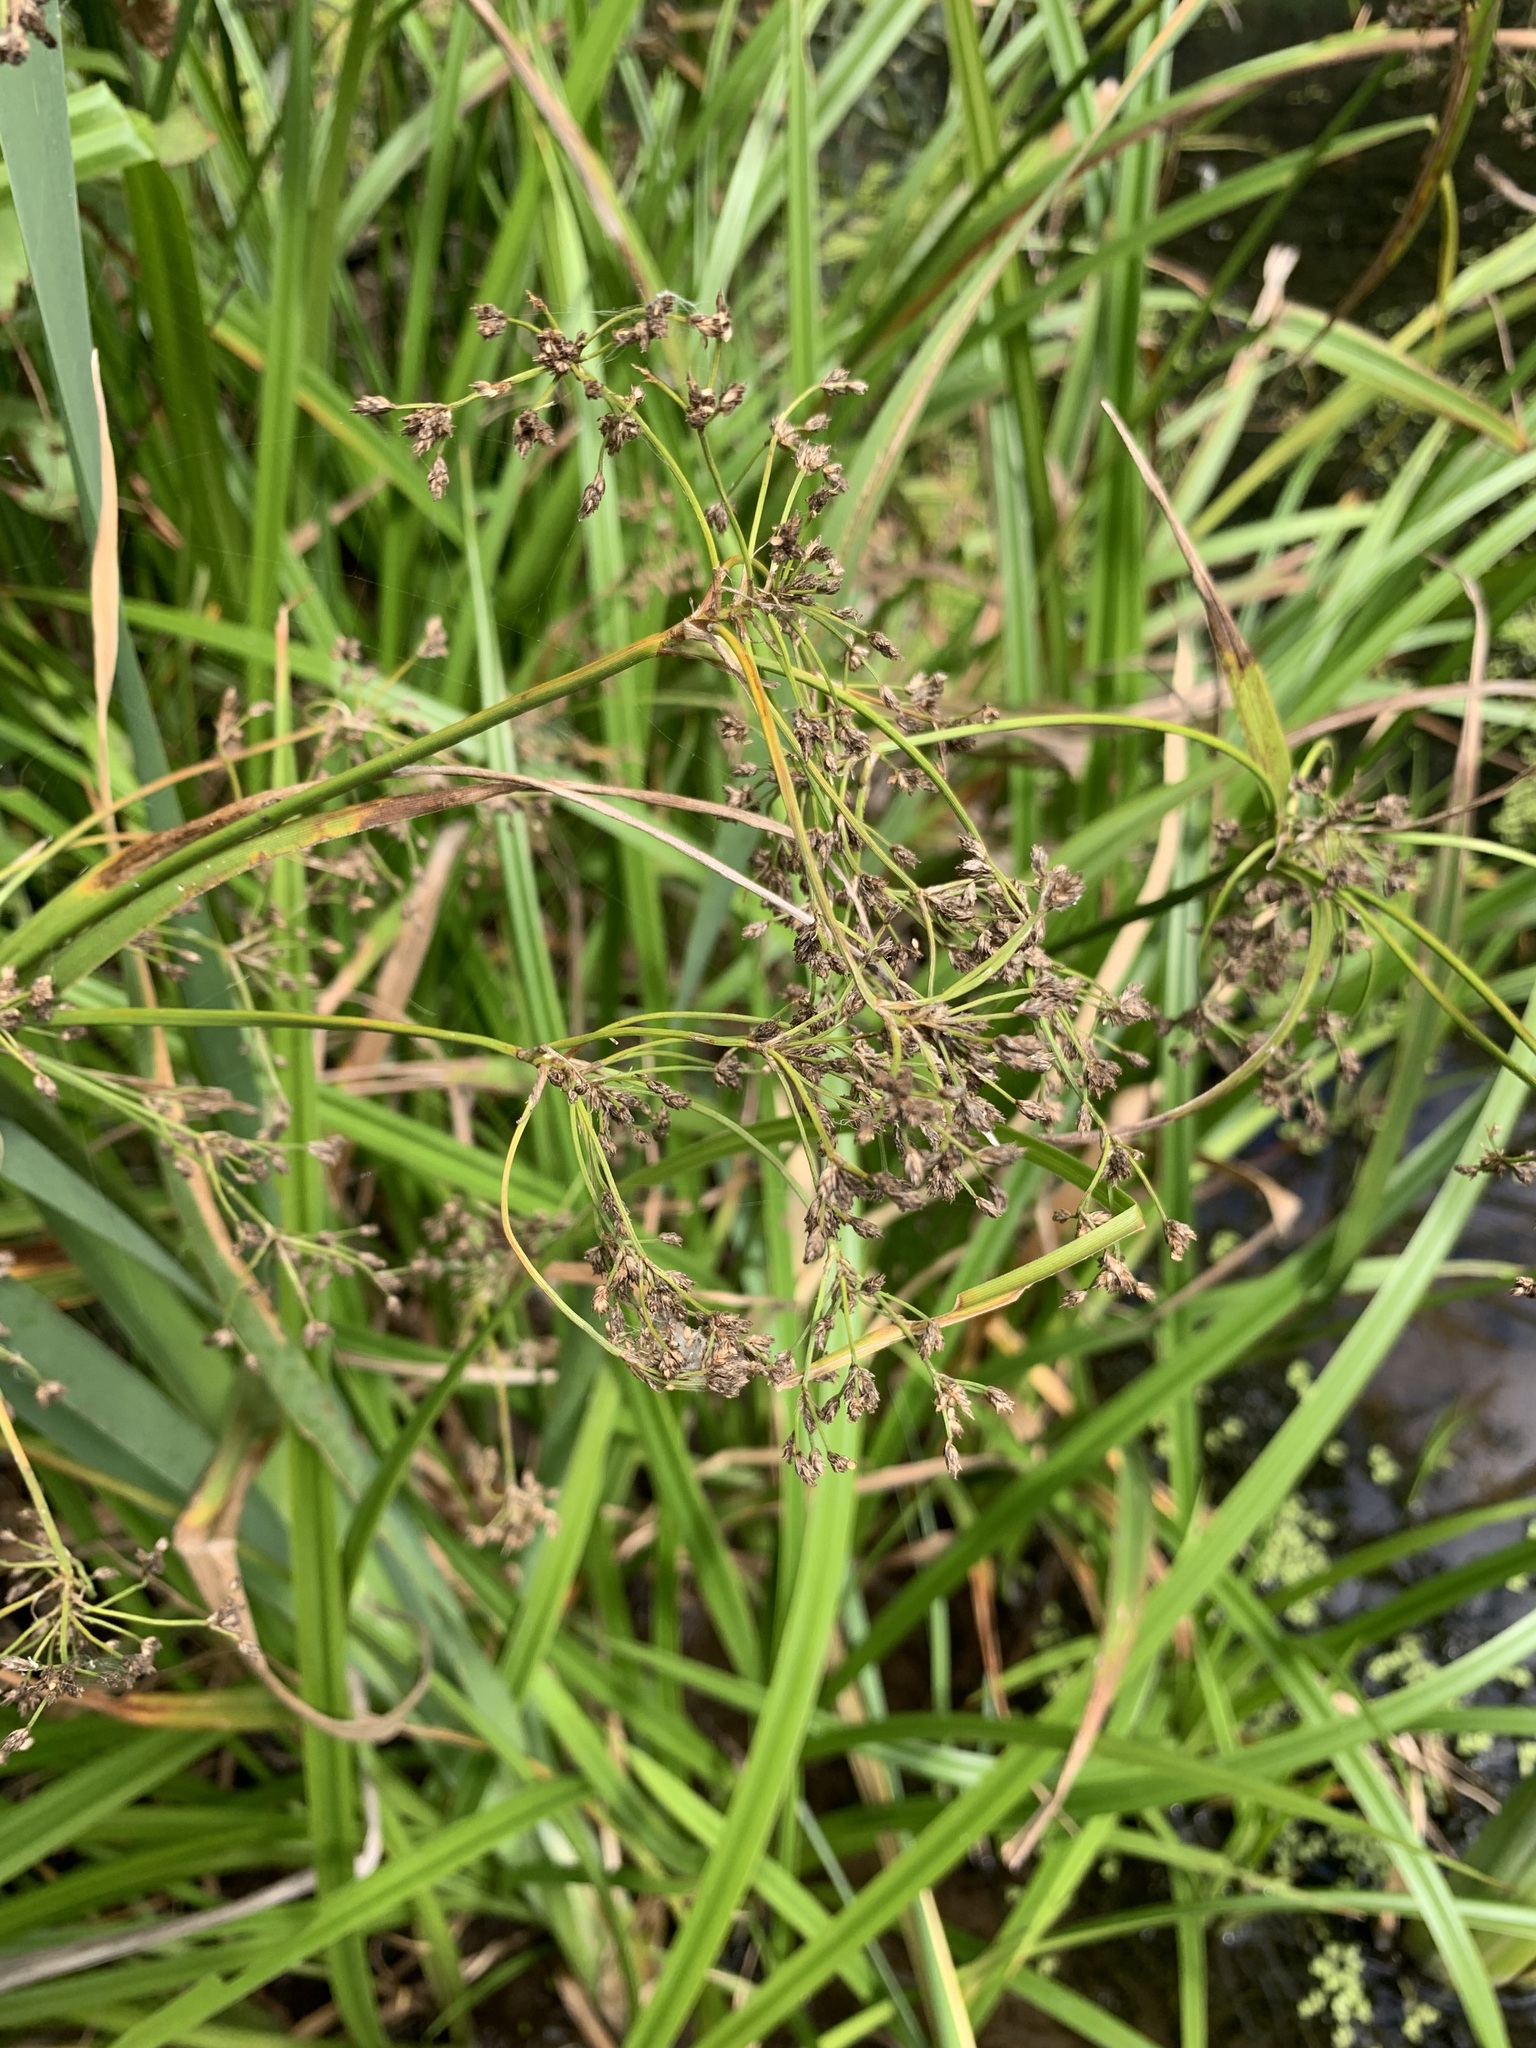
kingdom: Plantae
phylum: Tracheophyta
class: Liliopsida
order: Poales
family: Cyperaceae
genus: Scirpus
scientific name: Scirpus sylvaticus
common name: Wood club-rush
